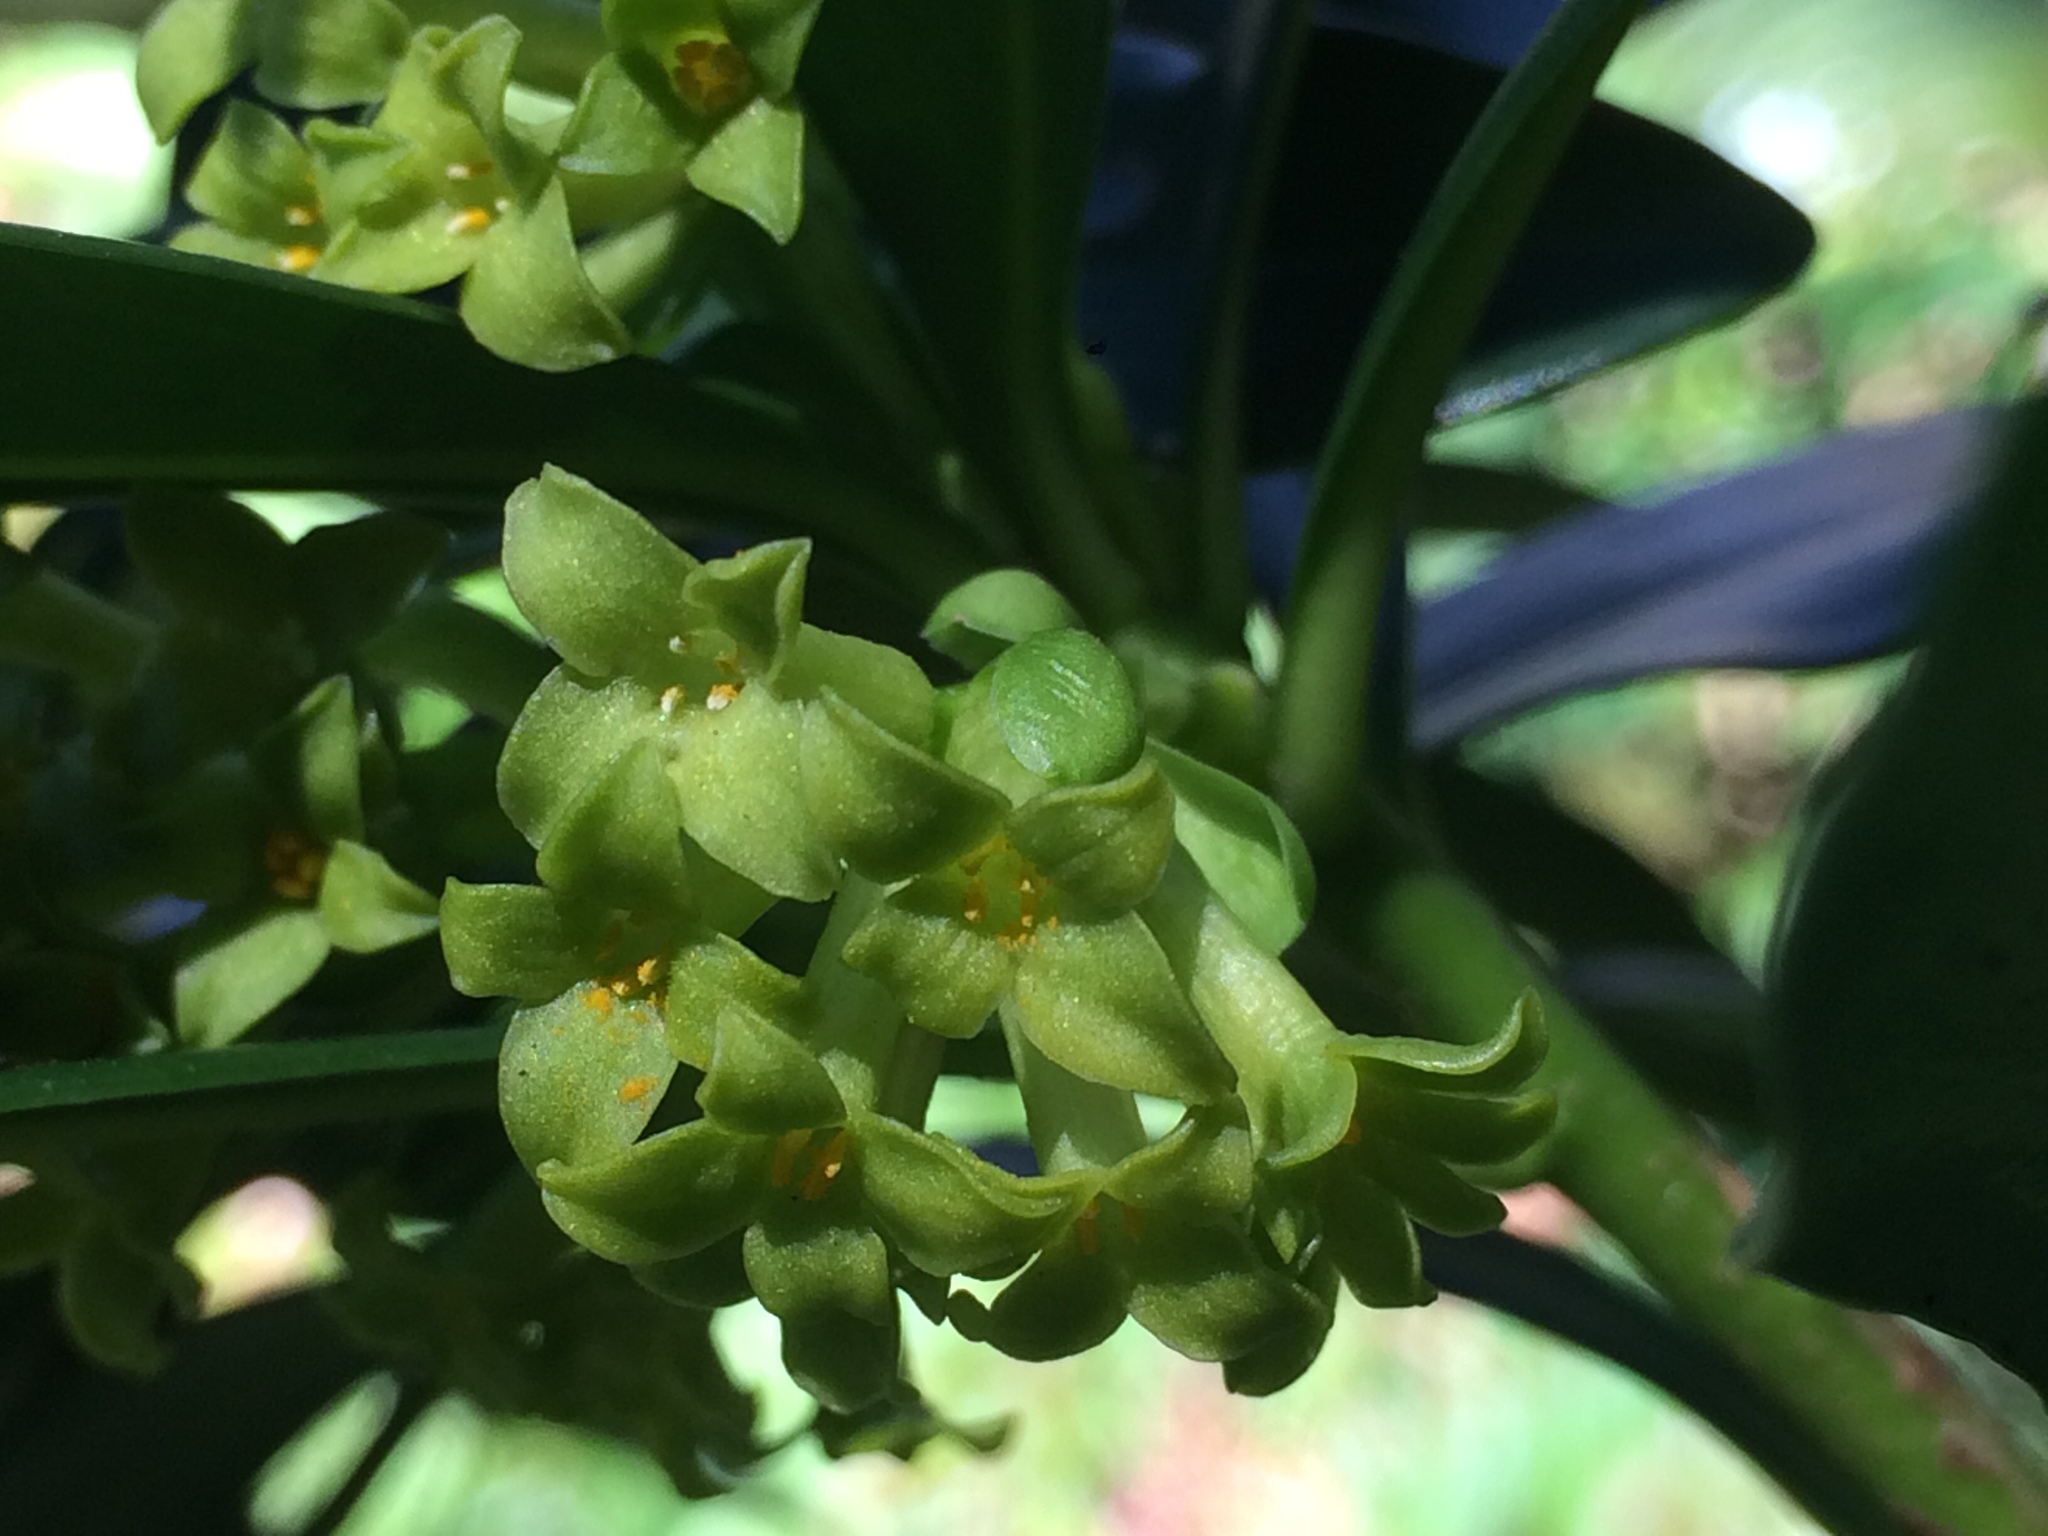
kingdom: Plantae
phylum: Tracheophyta
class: Magnoliopsida
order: Malvales
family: Thymelaeaceae
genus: Daphne
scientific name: Daphne laureola
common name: Spurge-laurel
